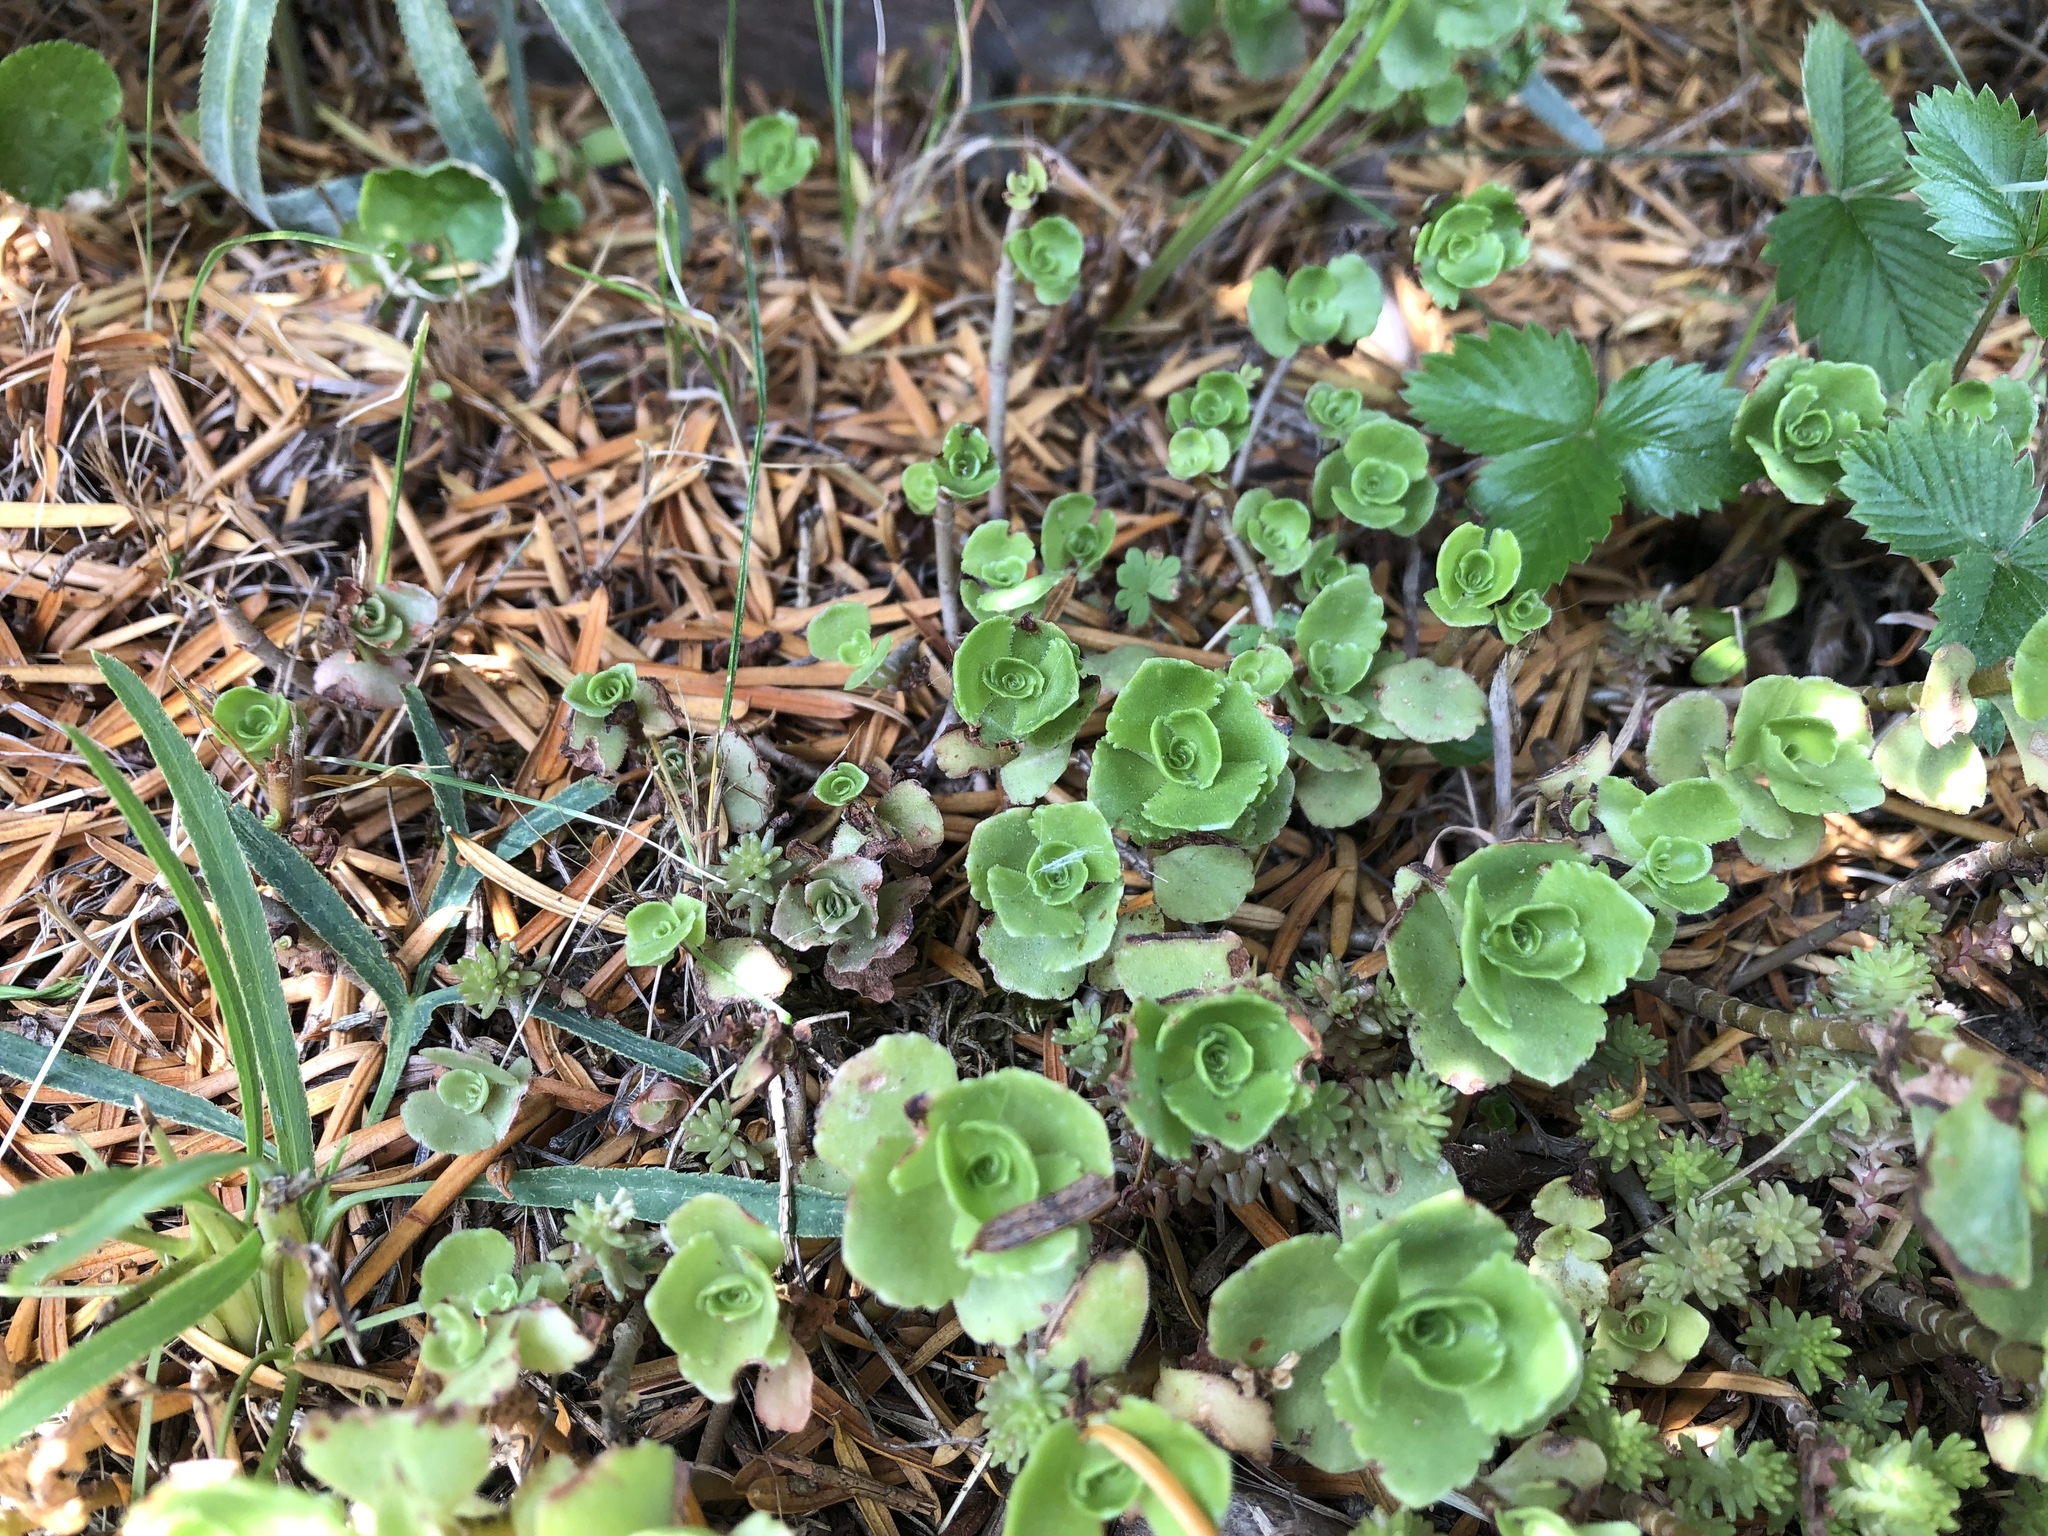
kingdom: Plantae
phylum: Tracheophyta
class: Magnoliopsida
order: Saxifragales
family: Crassulaceae
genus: Phedimus
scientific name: Phedimus spurius
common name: Caucasian stonecrop
